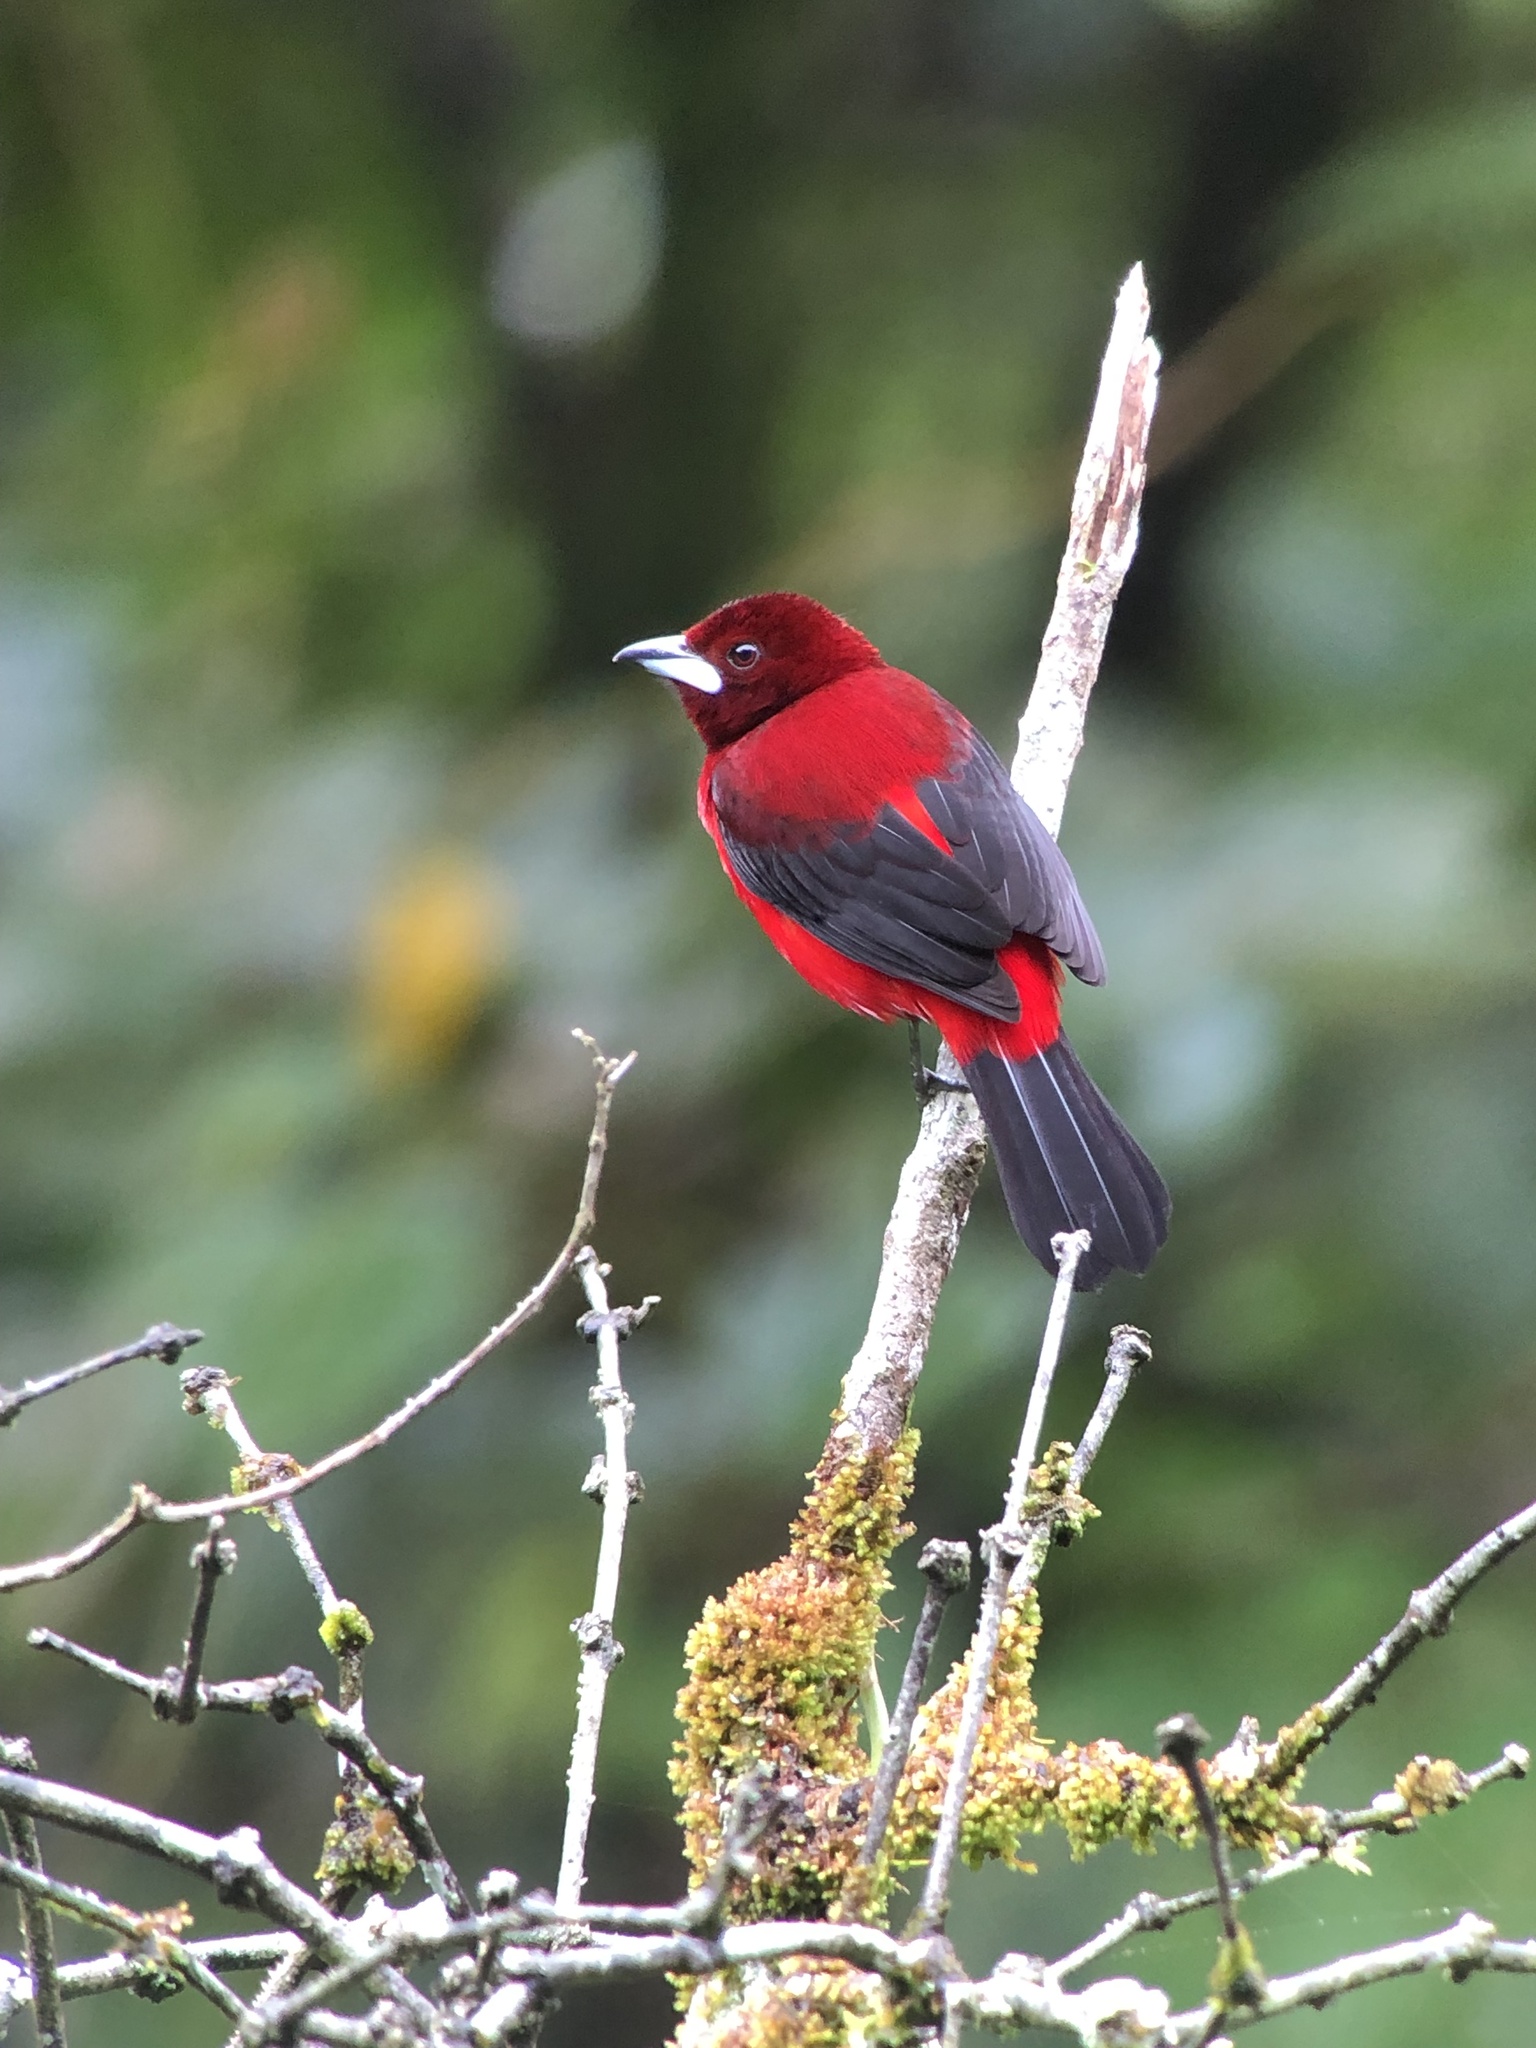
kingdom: Animalia
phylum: Chordata
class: Aves
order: Passeriformes
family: Thraupidae
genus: Ramphocelus
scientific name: Ramphocelus dimidiatus
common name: Crimson-backed tanager
